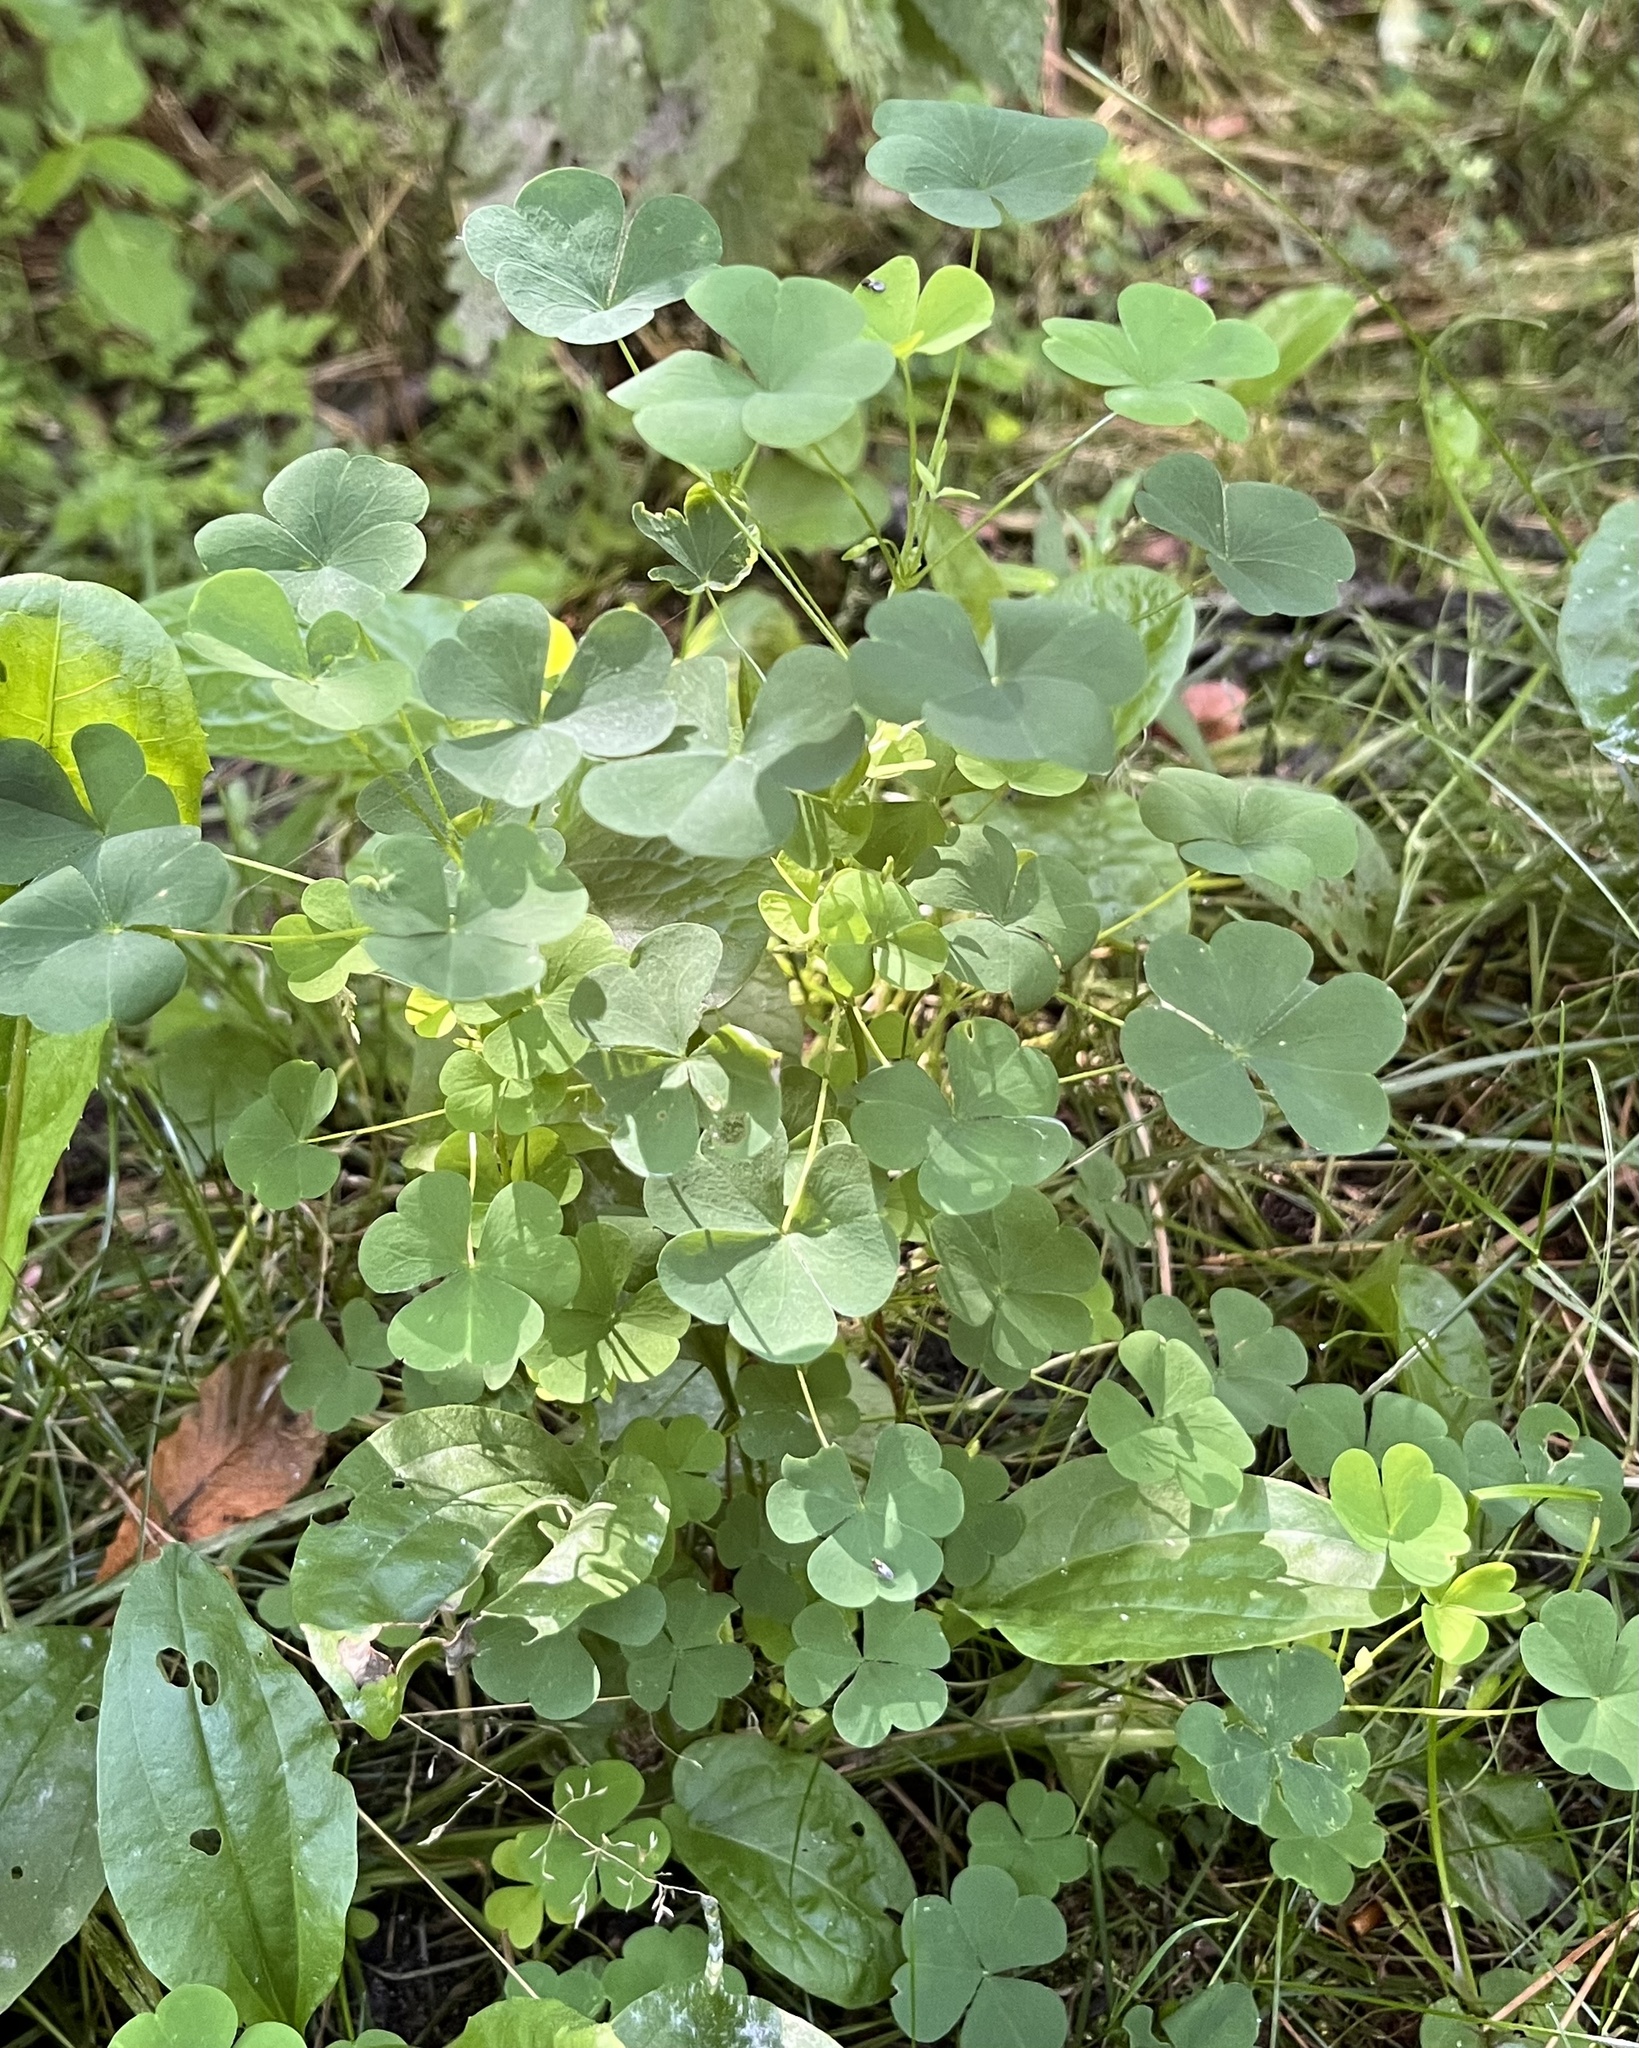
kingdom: Plantae
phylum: Tracheophyta
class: Magnoliopsida
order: Oxalidales
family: Oxalidaceae
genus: Oxalis
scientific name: Oxalis stricta
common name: Upright yellow-sorrel
